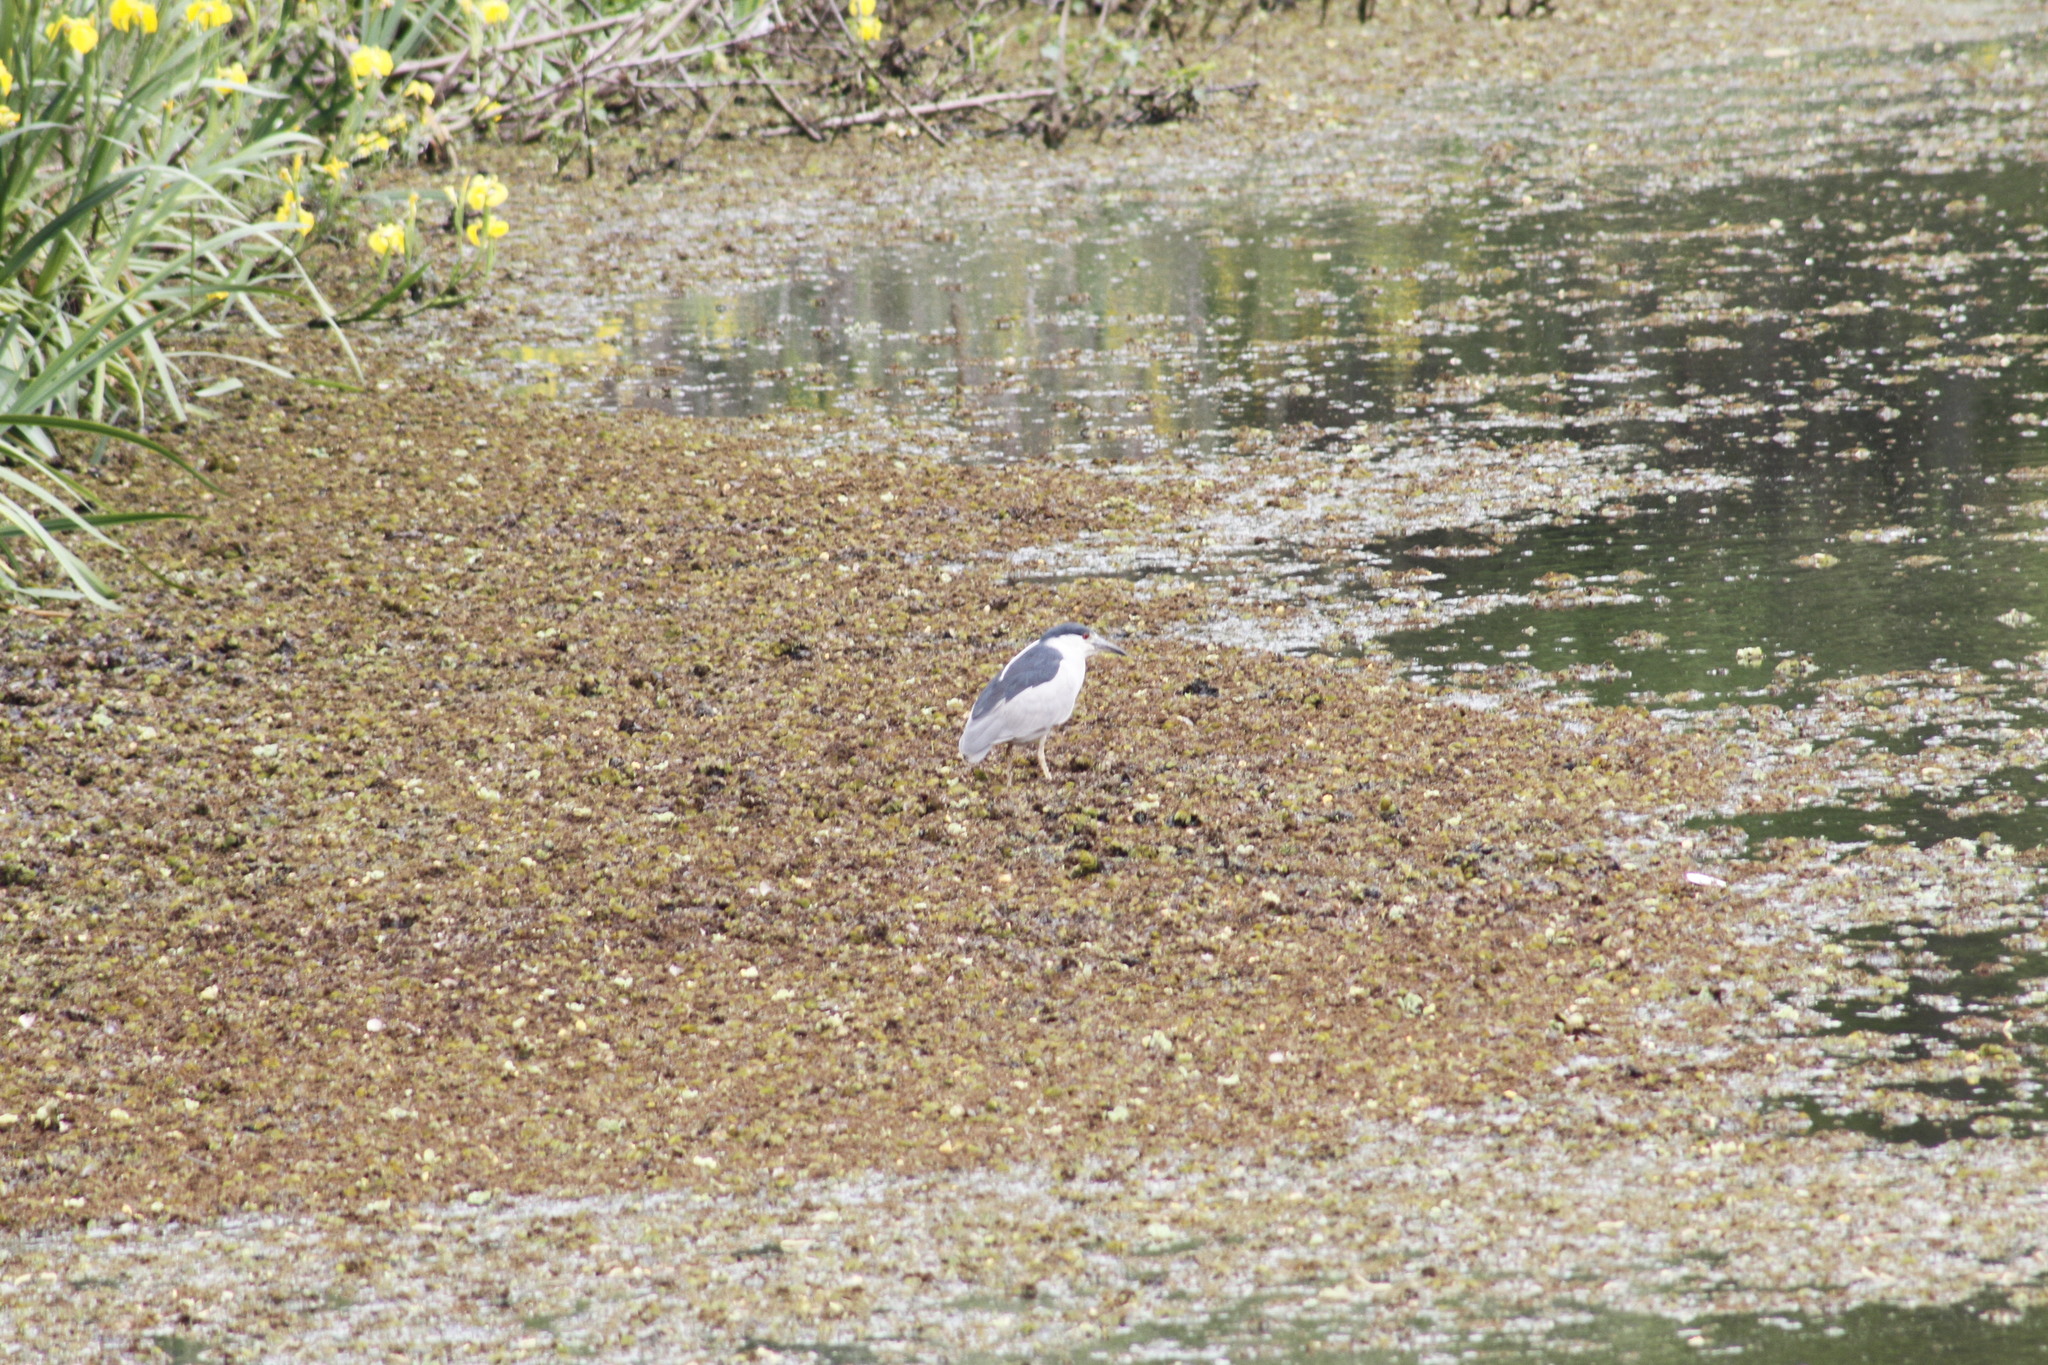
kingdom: Animalia
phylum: Chordata
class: Aves
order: Pelecaniformes
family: Ardeidae
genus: Nycticorax
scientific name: Nycticorax nycticorax
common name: Black-crowned night heron
